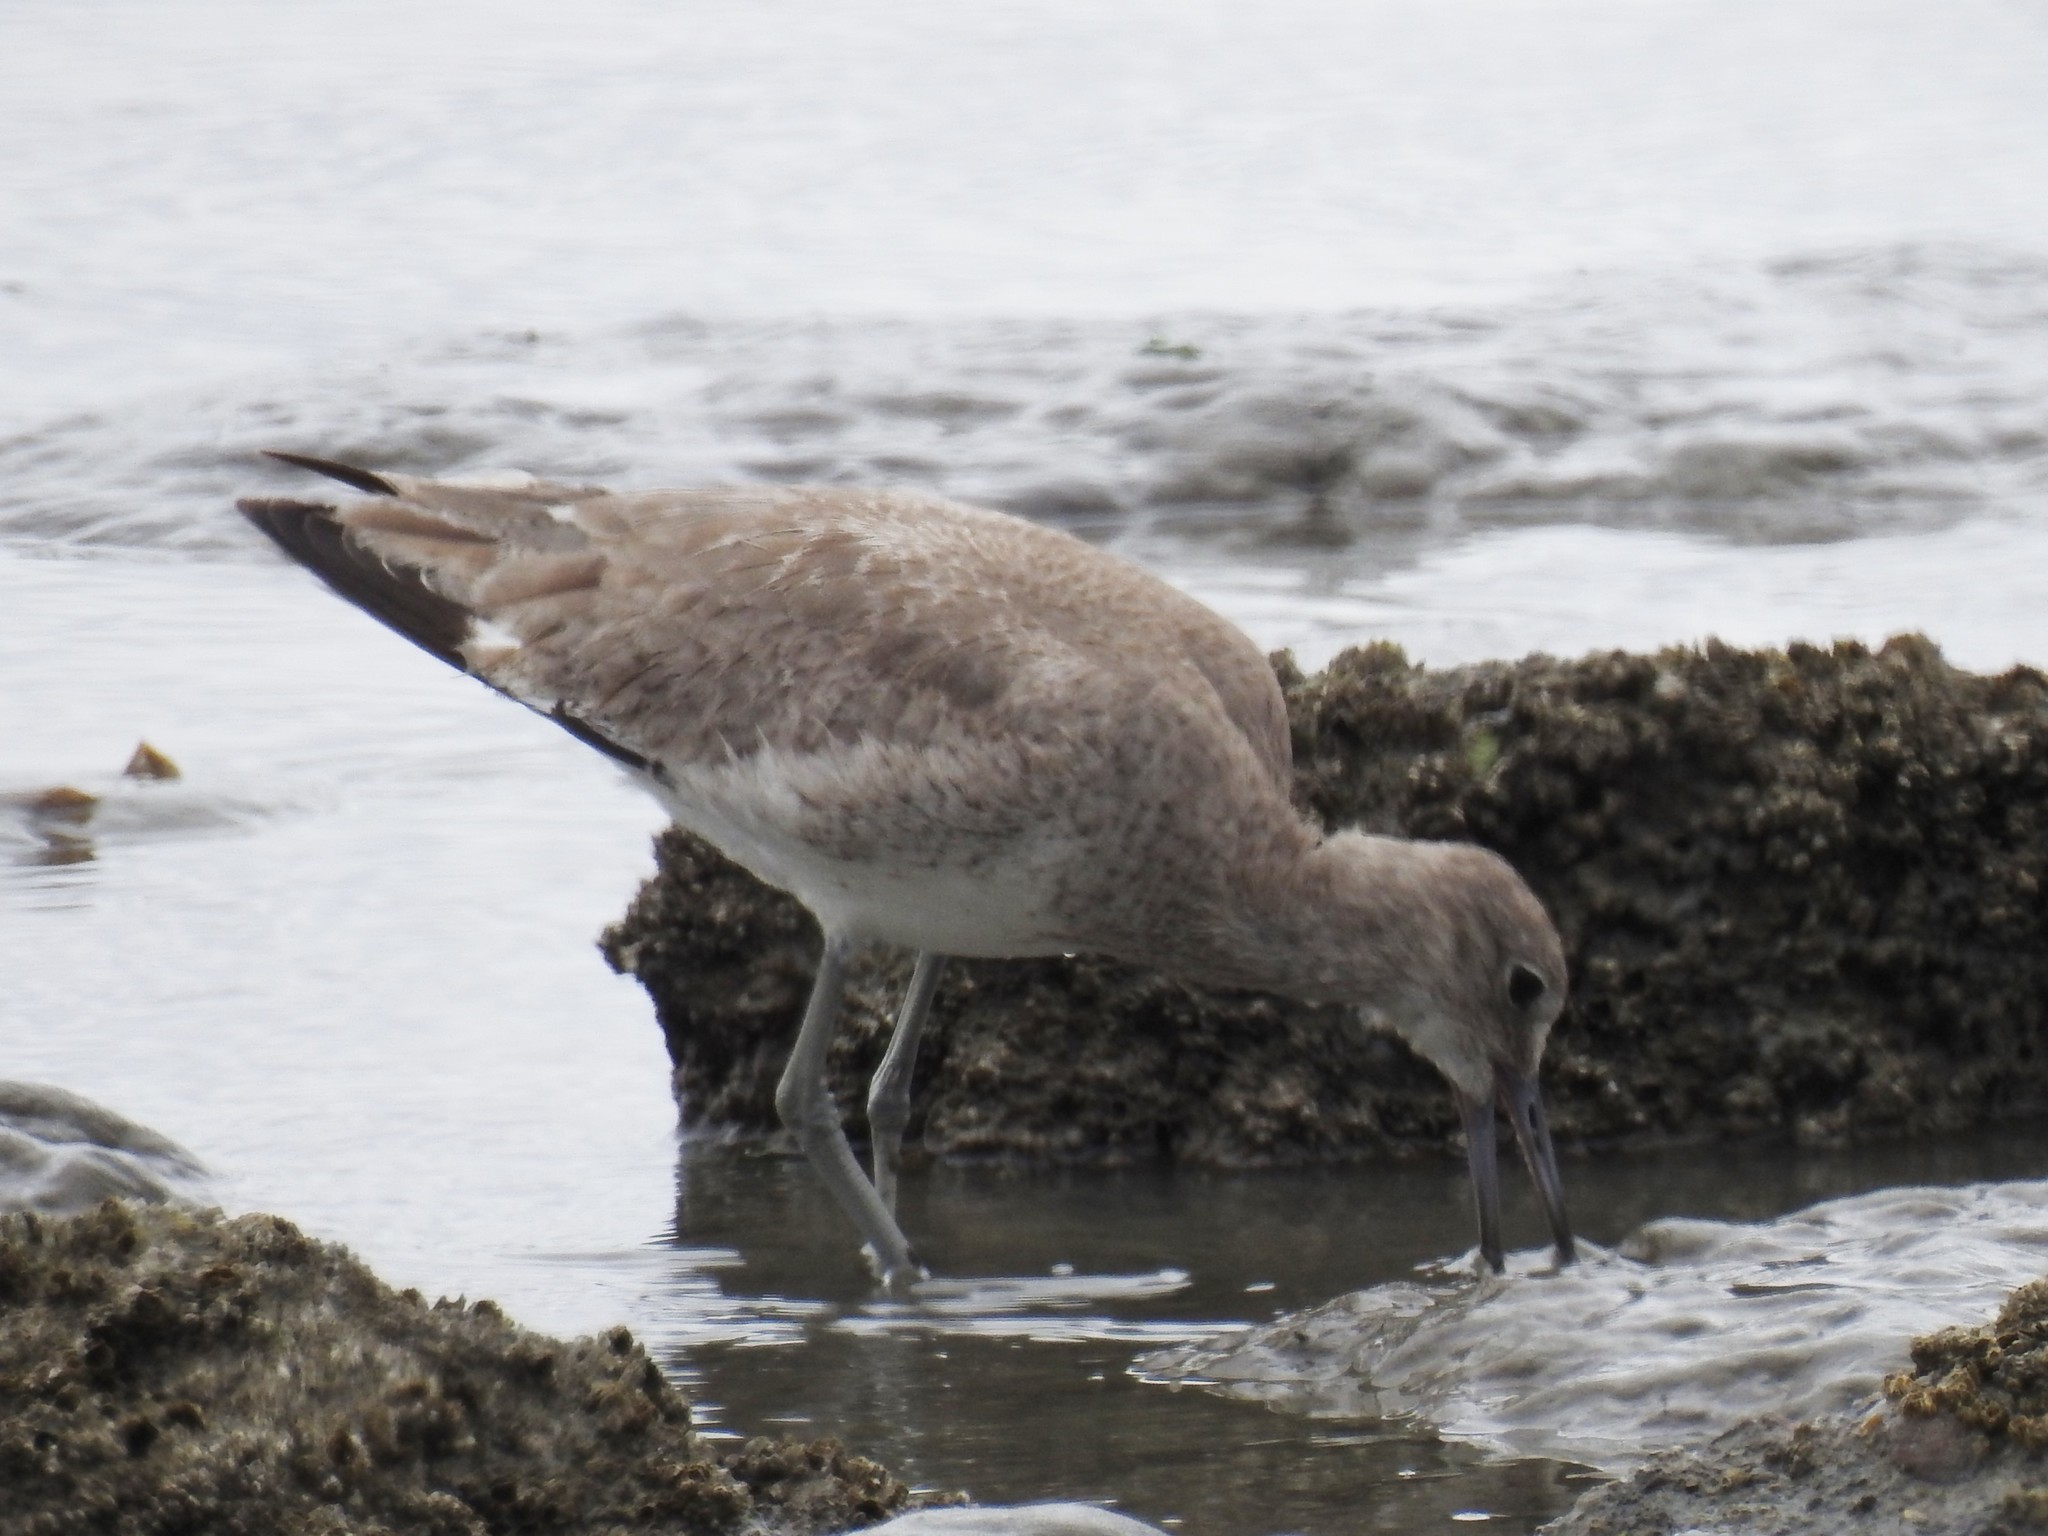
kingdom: Animalia
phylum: Chordata
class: Aves
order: Charadriiformes
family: Scolopacidae
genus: Tringa
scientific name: Tringa semipalmata
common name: Willet
